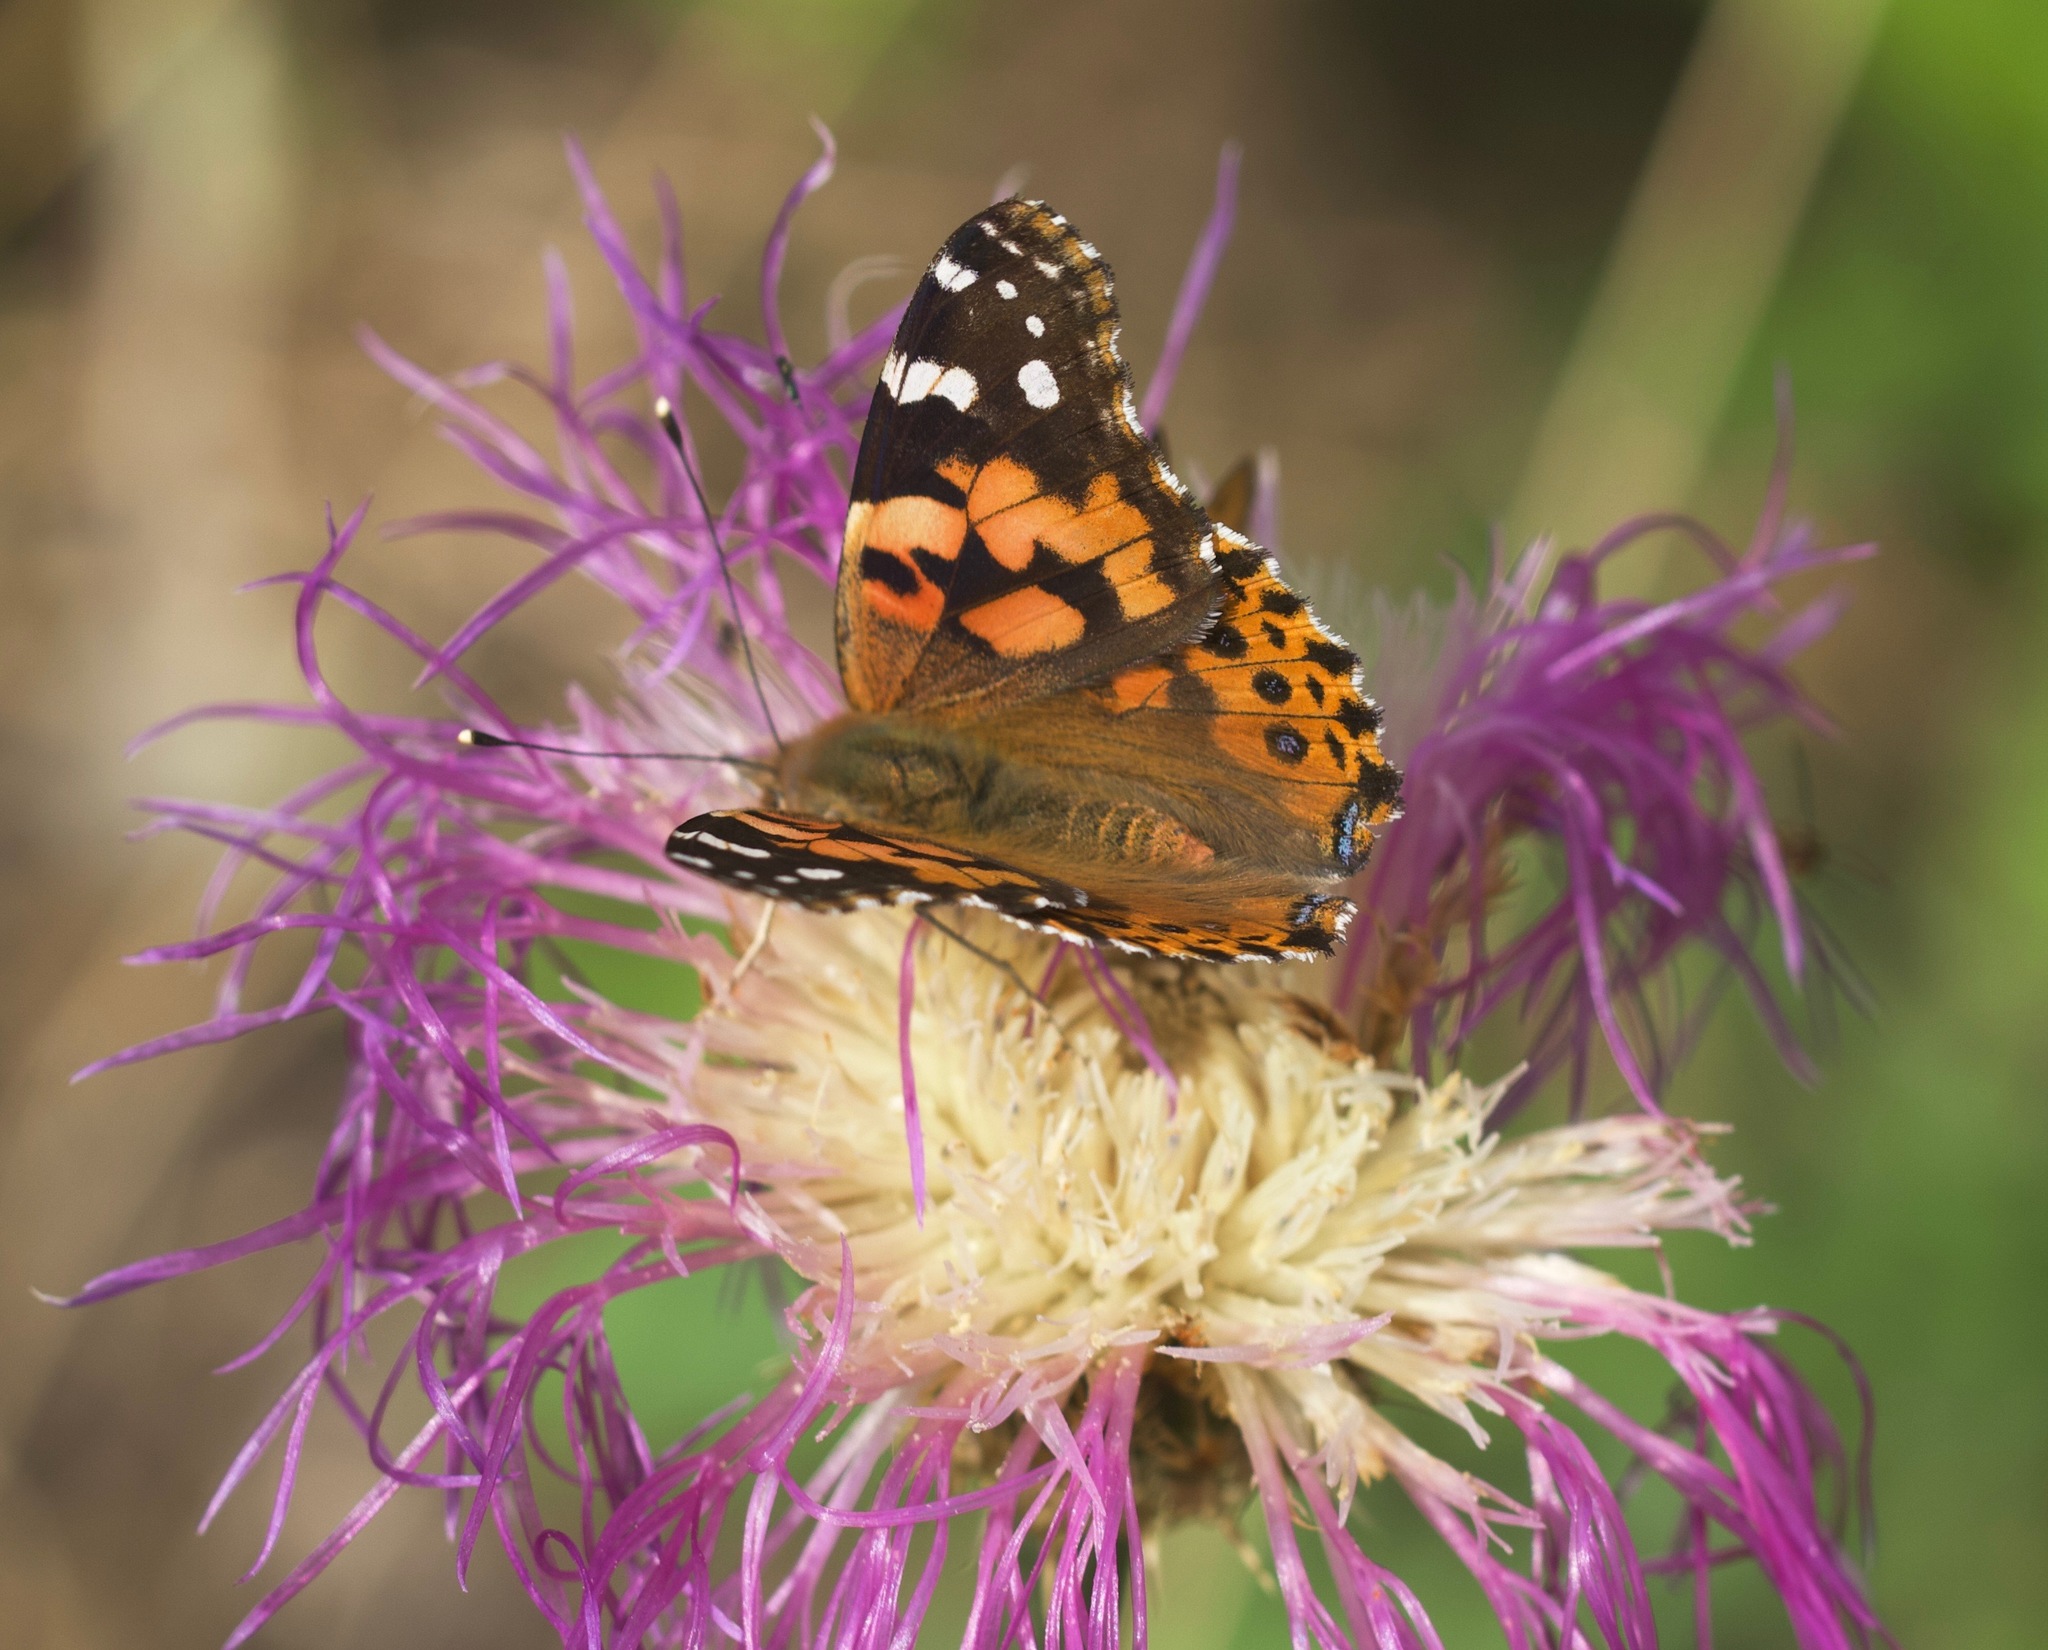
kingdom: Animalia
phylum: Arthropoda
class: Insecta
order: Lepidoptera
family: Nymphalidae
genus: Vanessa
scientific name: Vanessa cardui
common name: Painted lady
